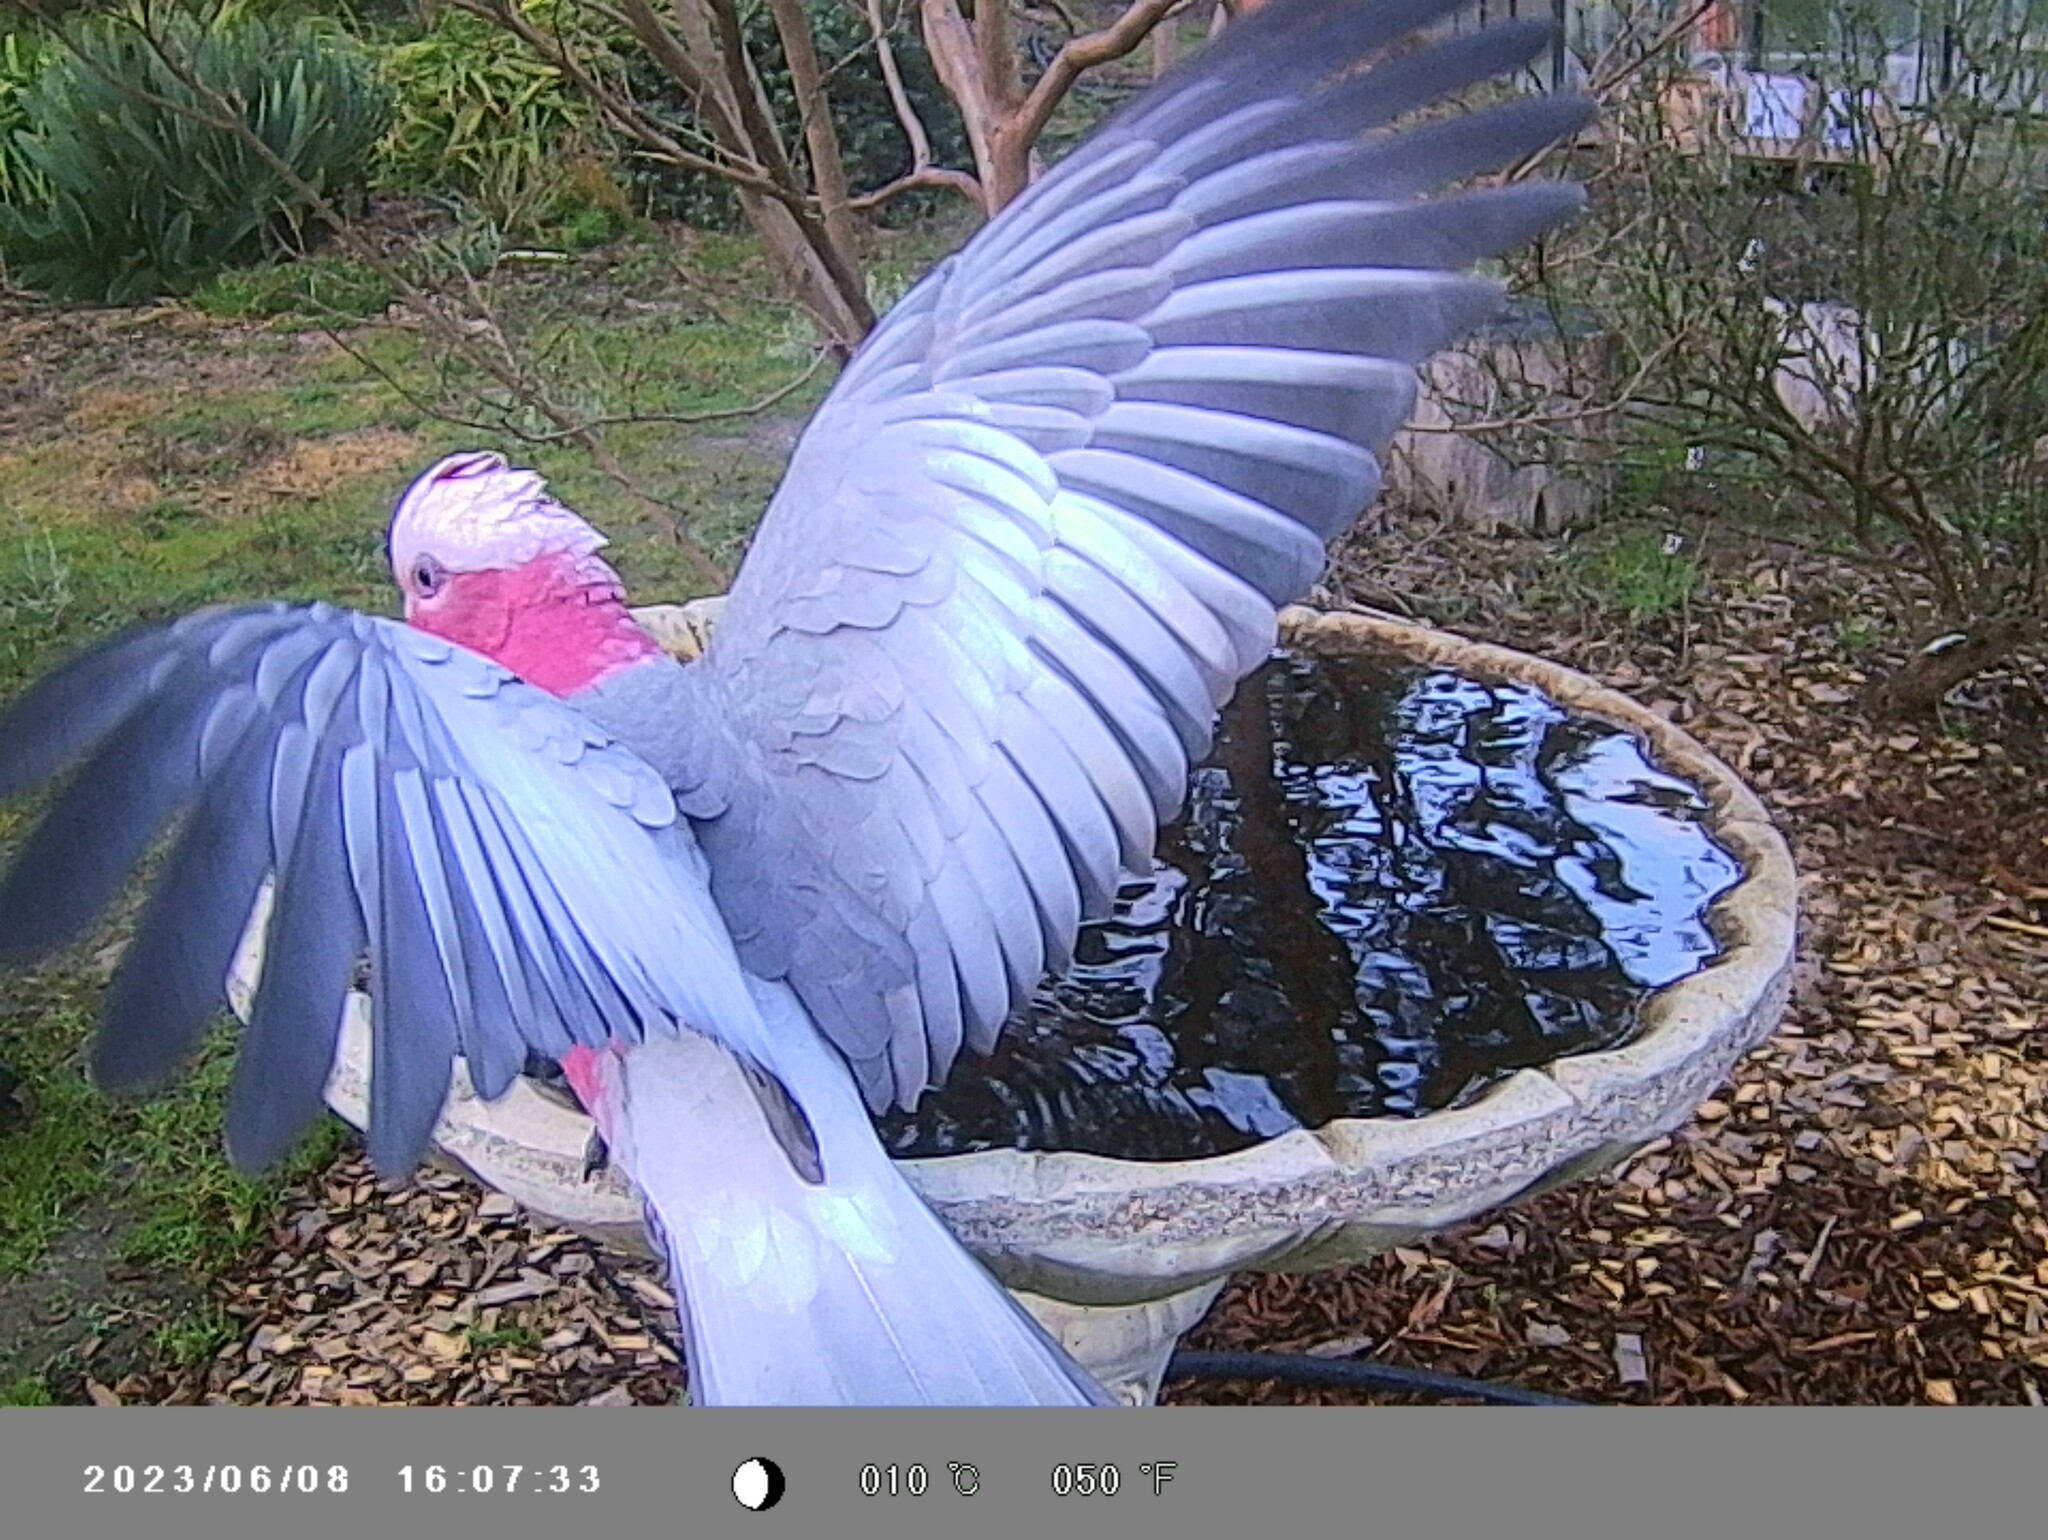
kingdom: Animalia
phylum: Chordata
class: Aves
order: Psittaciformes
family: Psittacidae
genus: Eolophus
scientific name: Eolophus roseicapilla
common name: Galah
